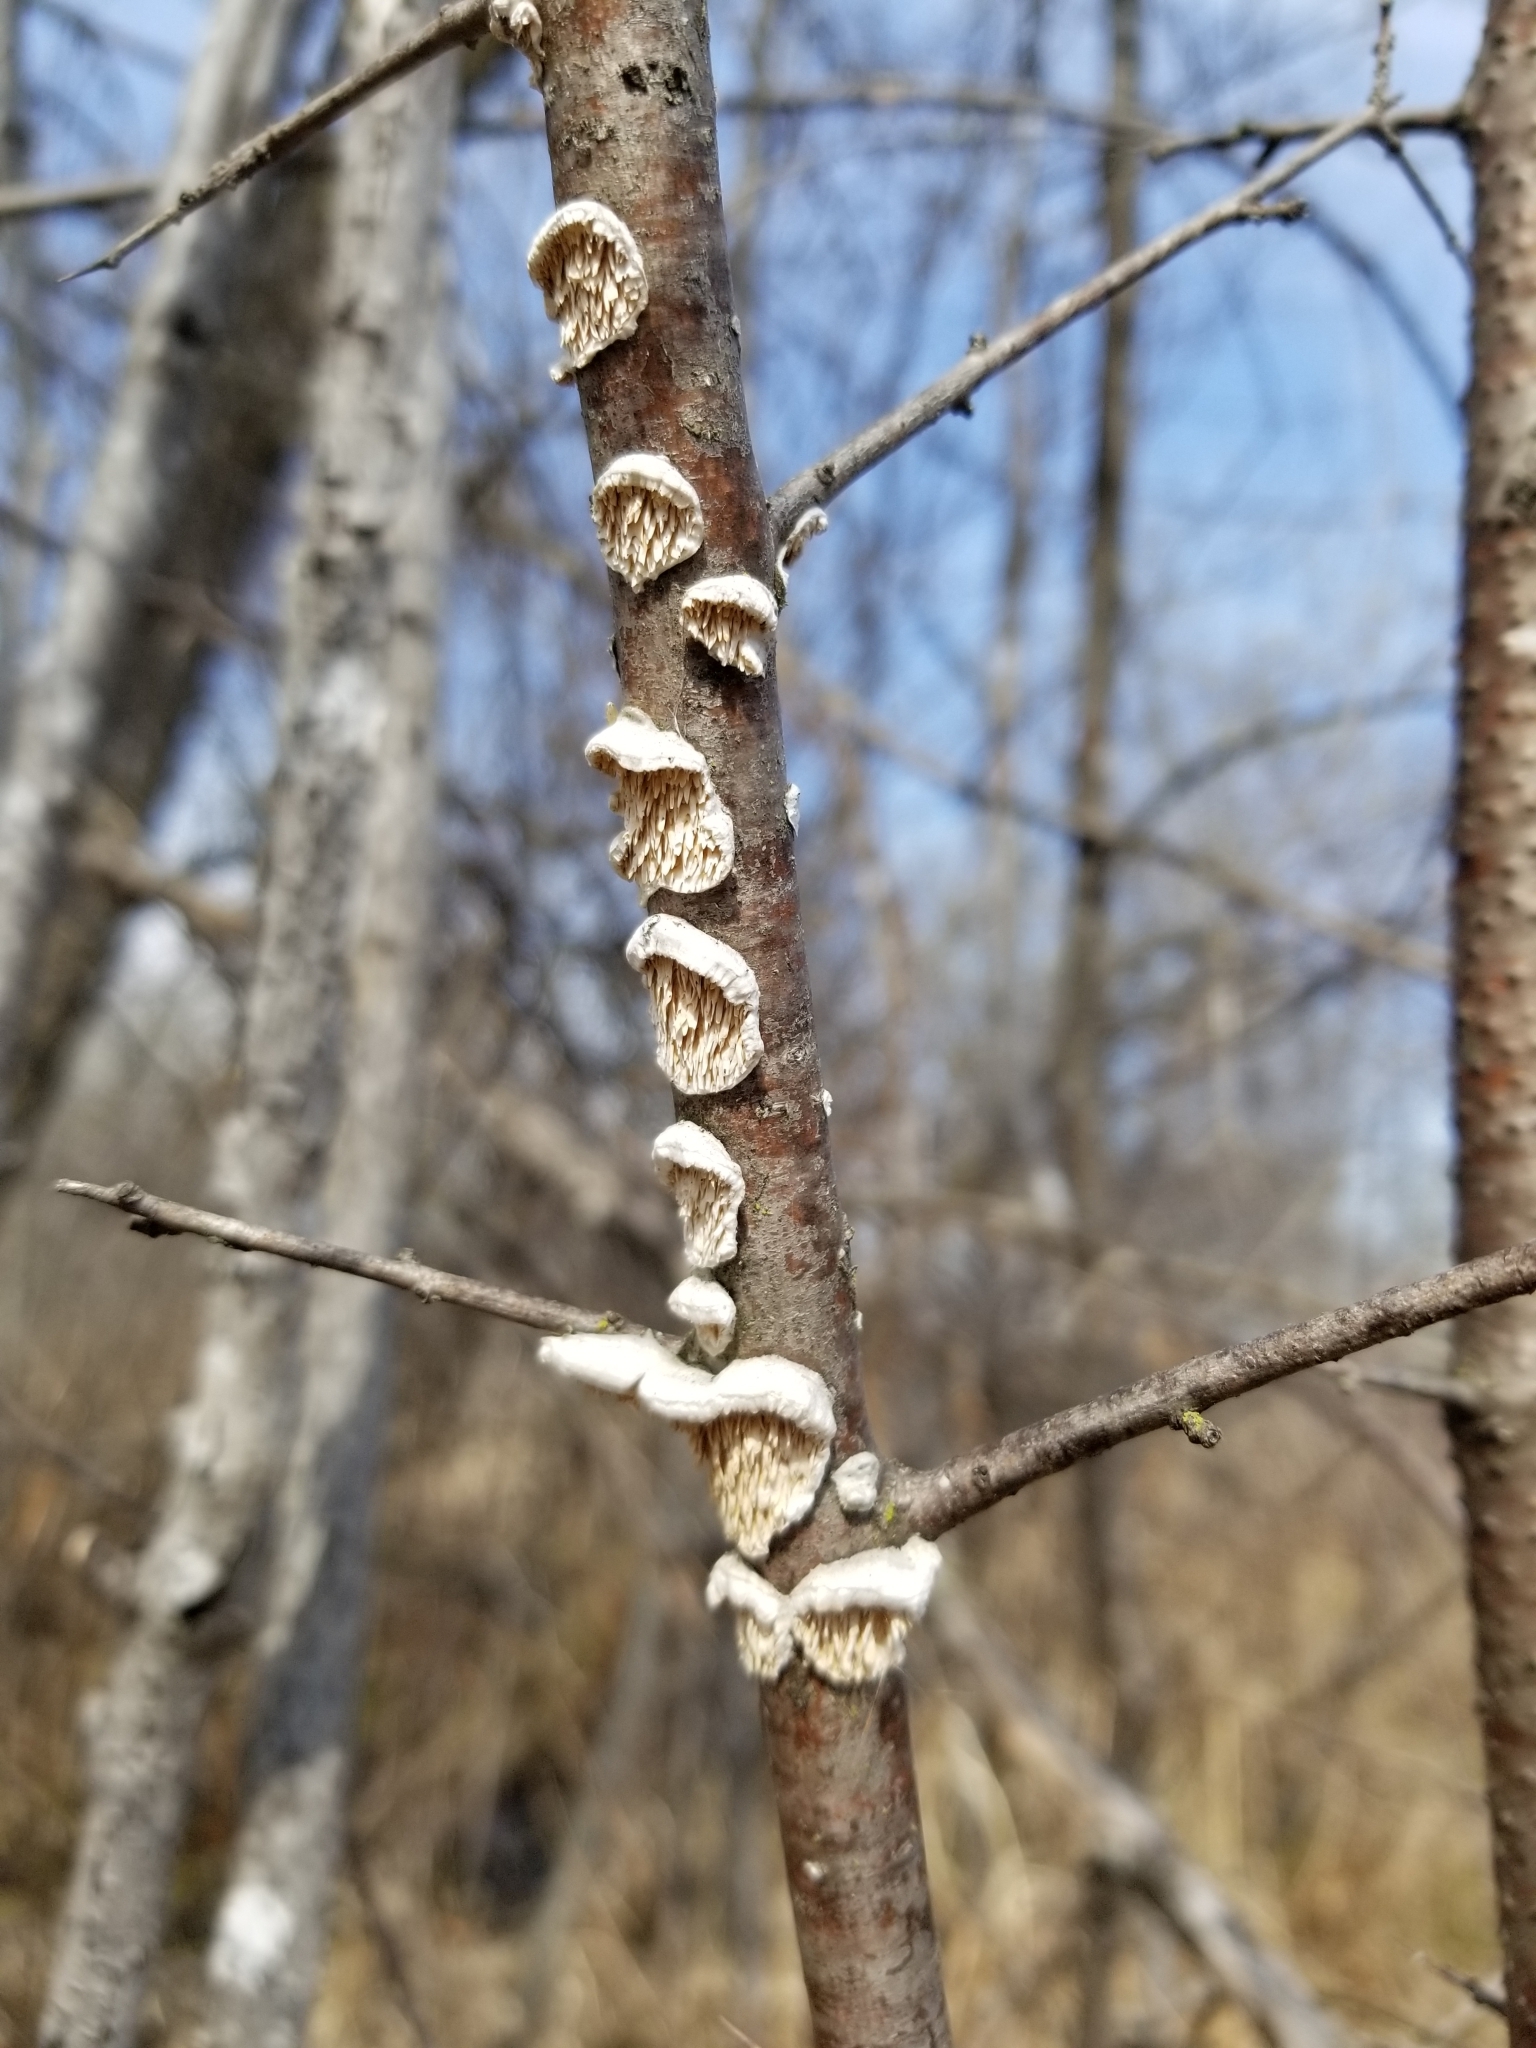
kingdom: Fungi
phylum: Basidiomycota
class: Agaricomycetes
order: Polyporales
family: Irpicaceae
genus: Irpex
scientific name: Irpex lacteus
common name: Milk-white toothed polypore
